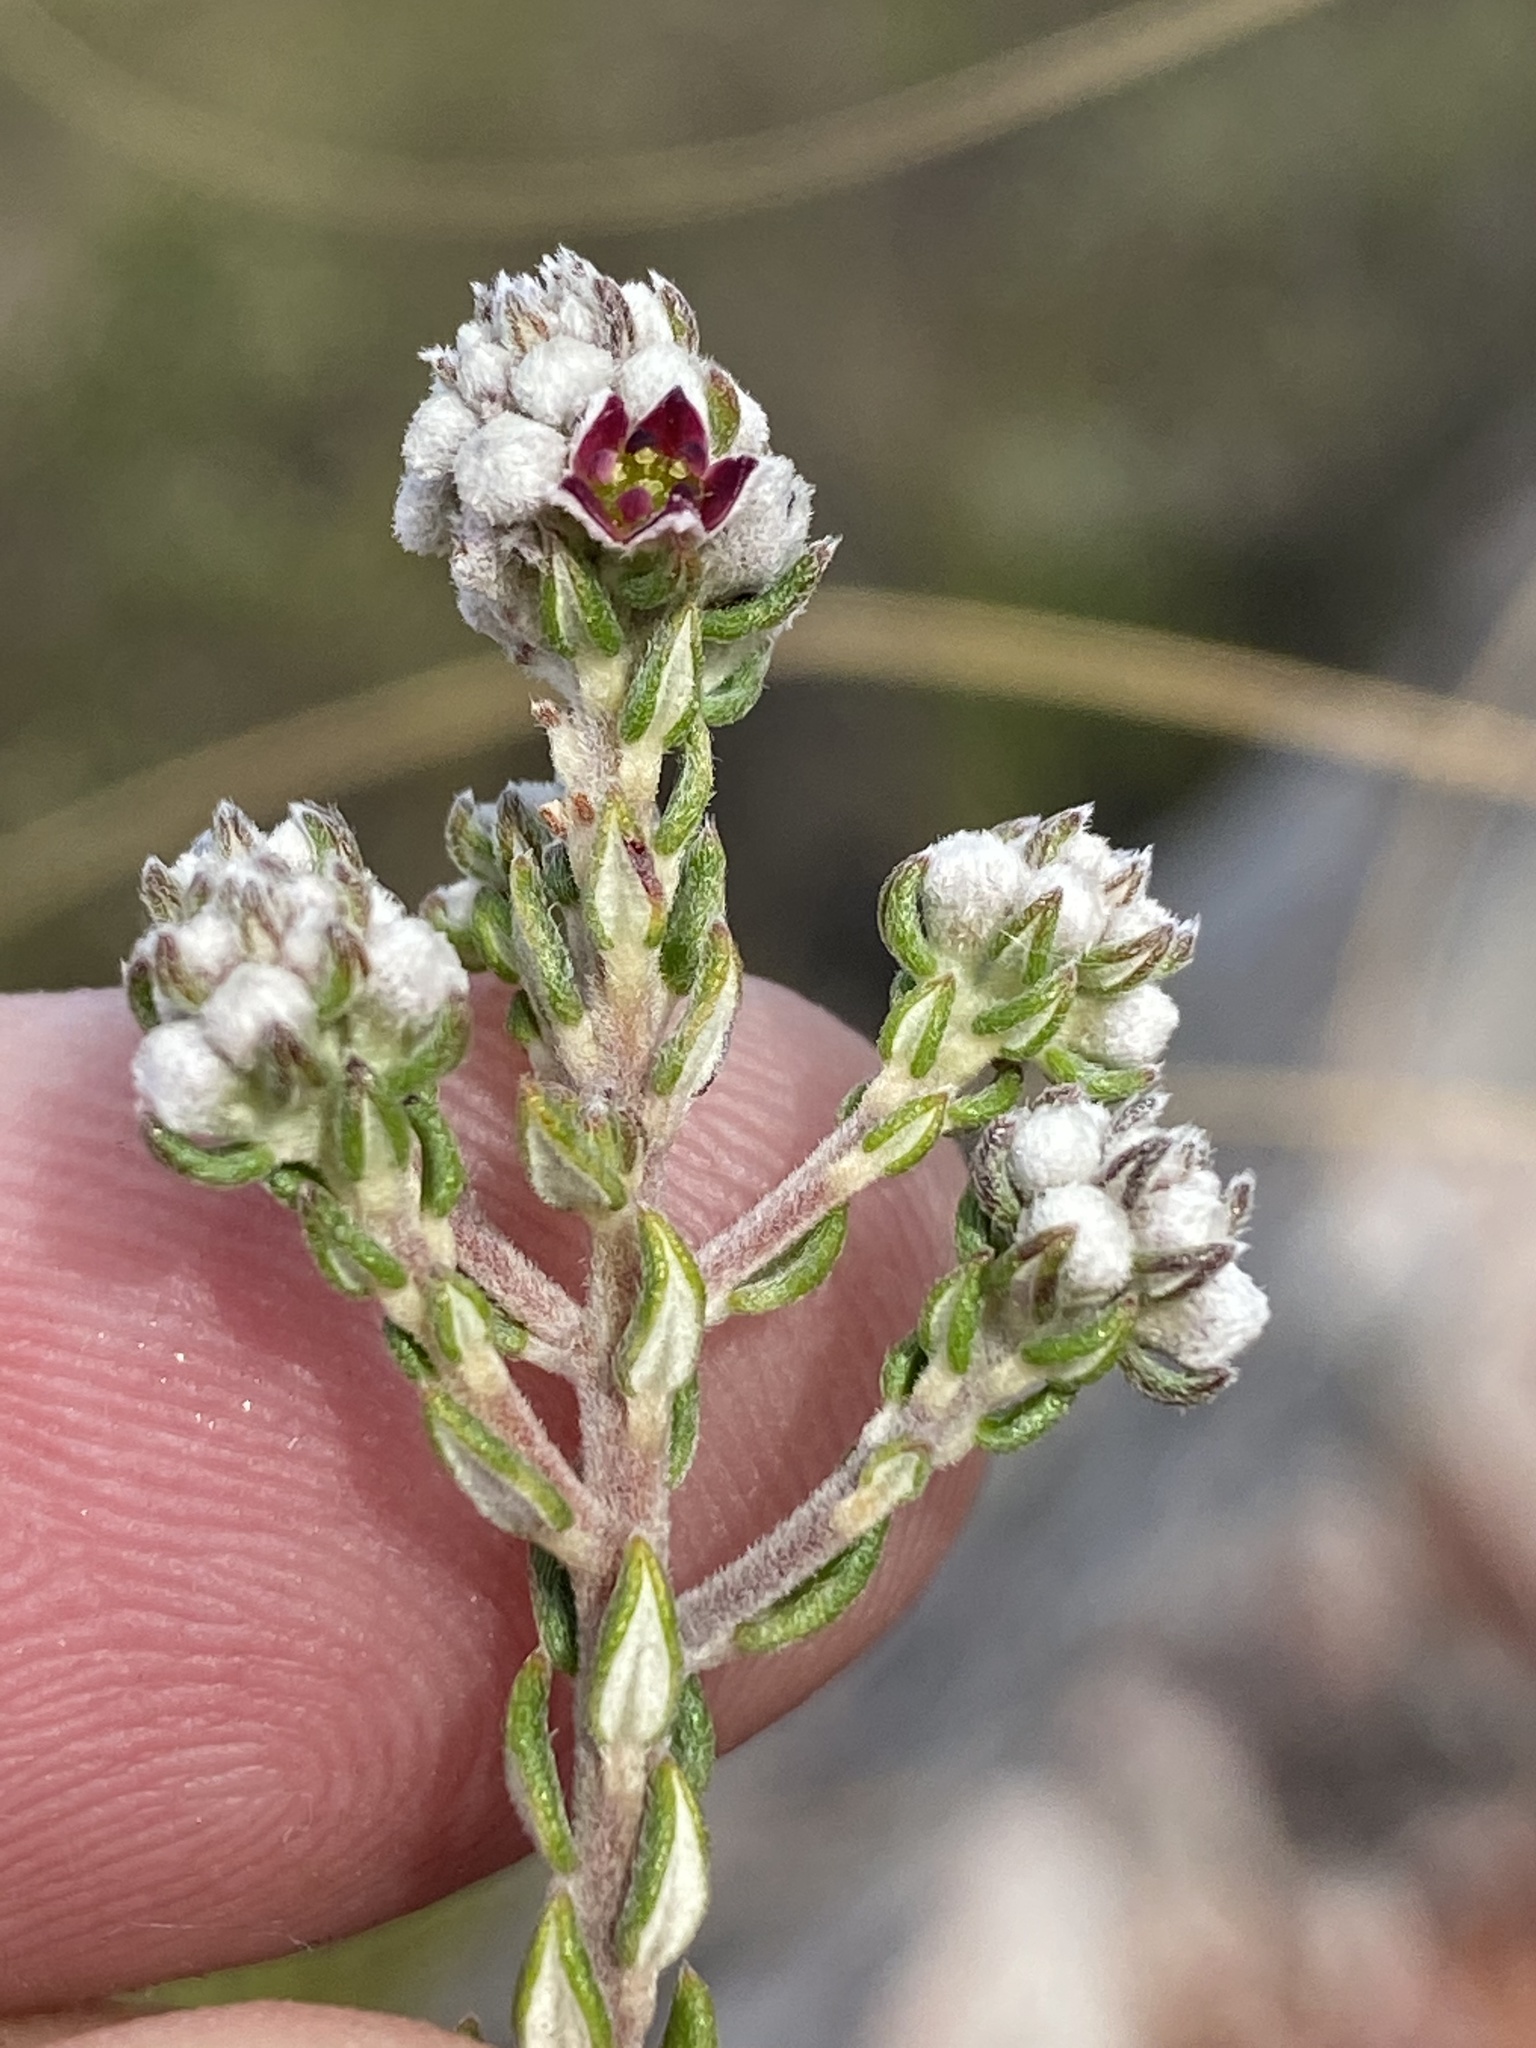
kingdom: Plantae
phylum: Tracheophyta
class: Magnoliopsida
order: Rosales
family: Rhamnaceae
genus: Phylica
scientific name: Phylica purpurea
